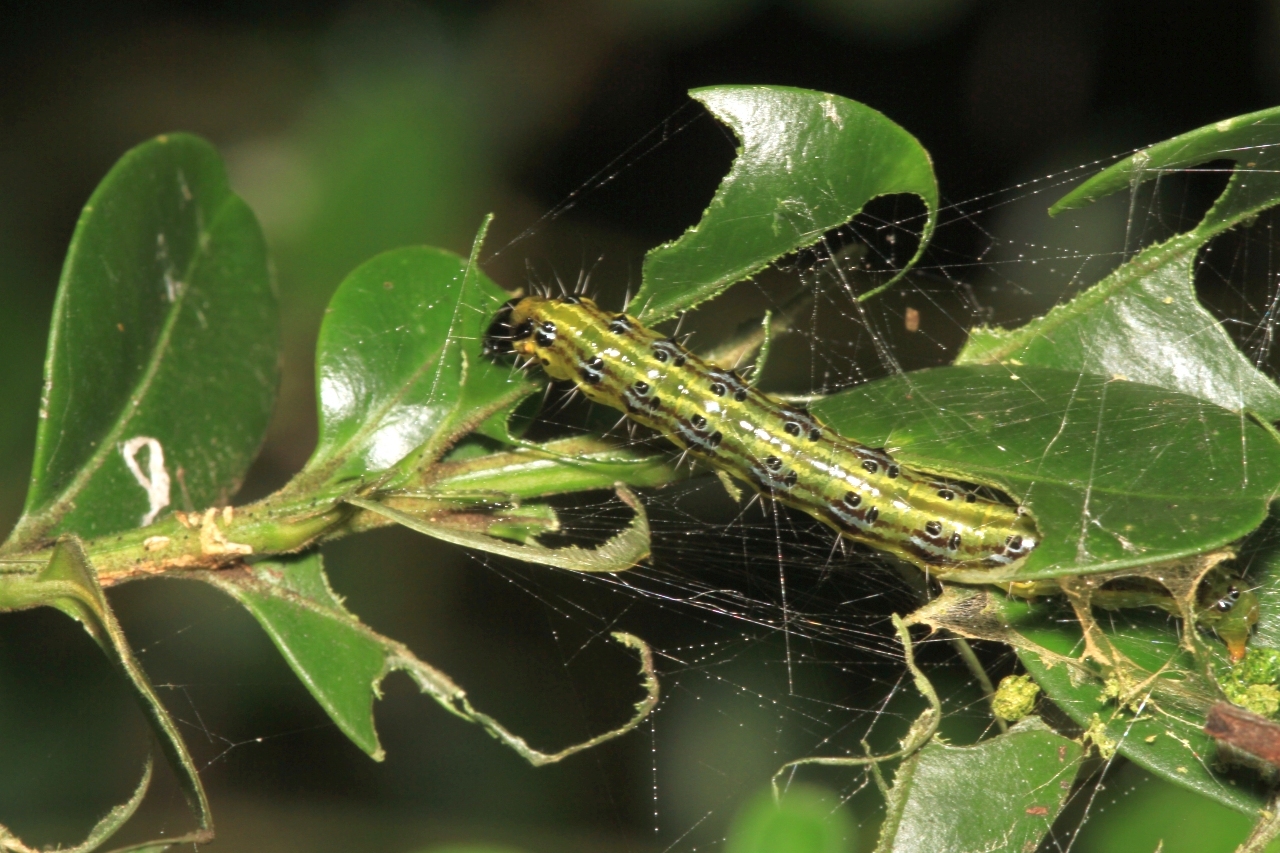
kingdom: Animalia
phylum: Arthropoda
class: Insecta
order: Lepidoptera
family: Crambidae
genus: Cydalima
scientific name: Cydalima perspectalis
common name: Box tree moth
